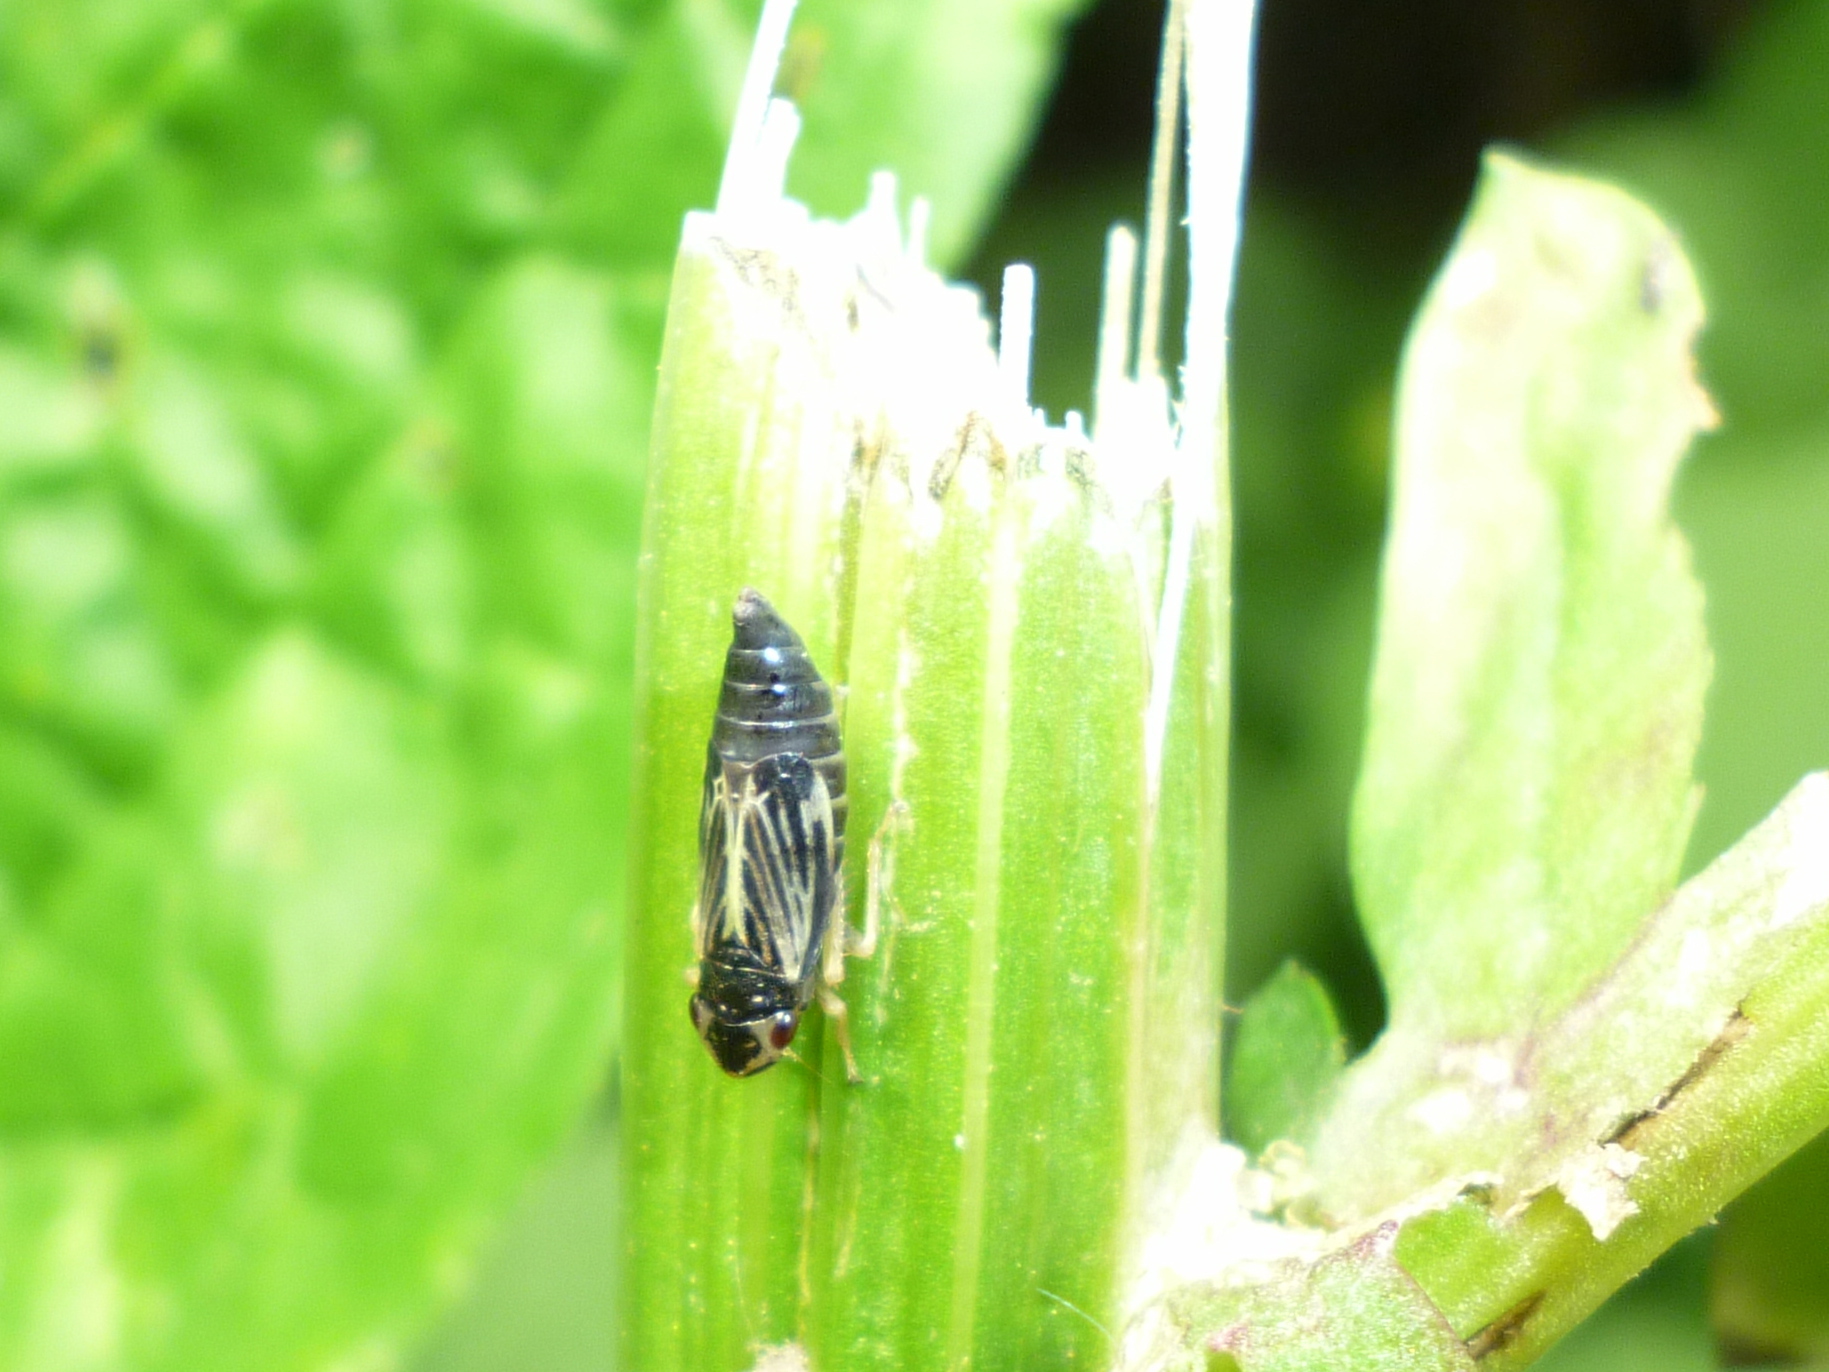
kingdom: Animalia
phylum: Arthropoda
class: Insecta
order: Hemiptera
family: Cicadellidae
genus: Evacanthus
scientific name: Evacanthus nigramericanus
